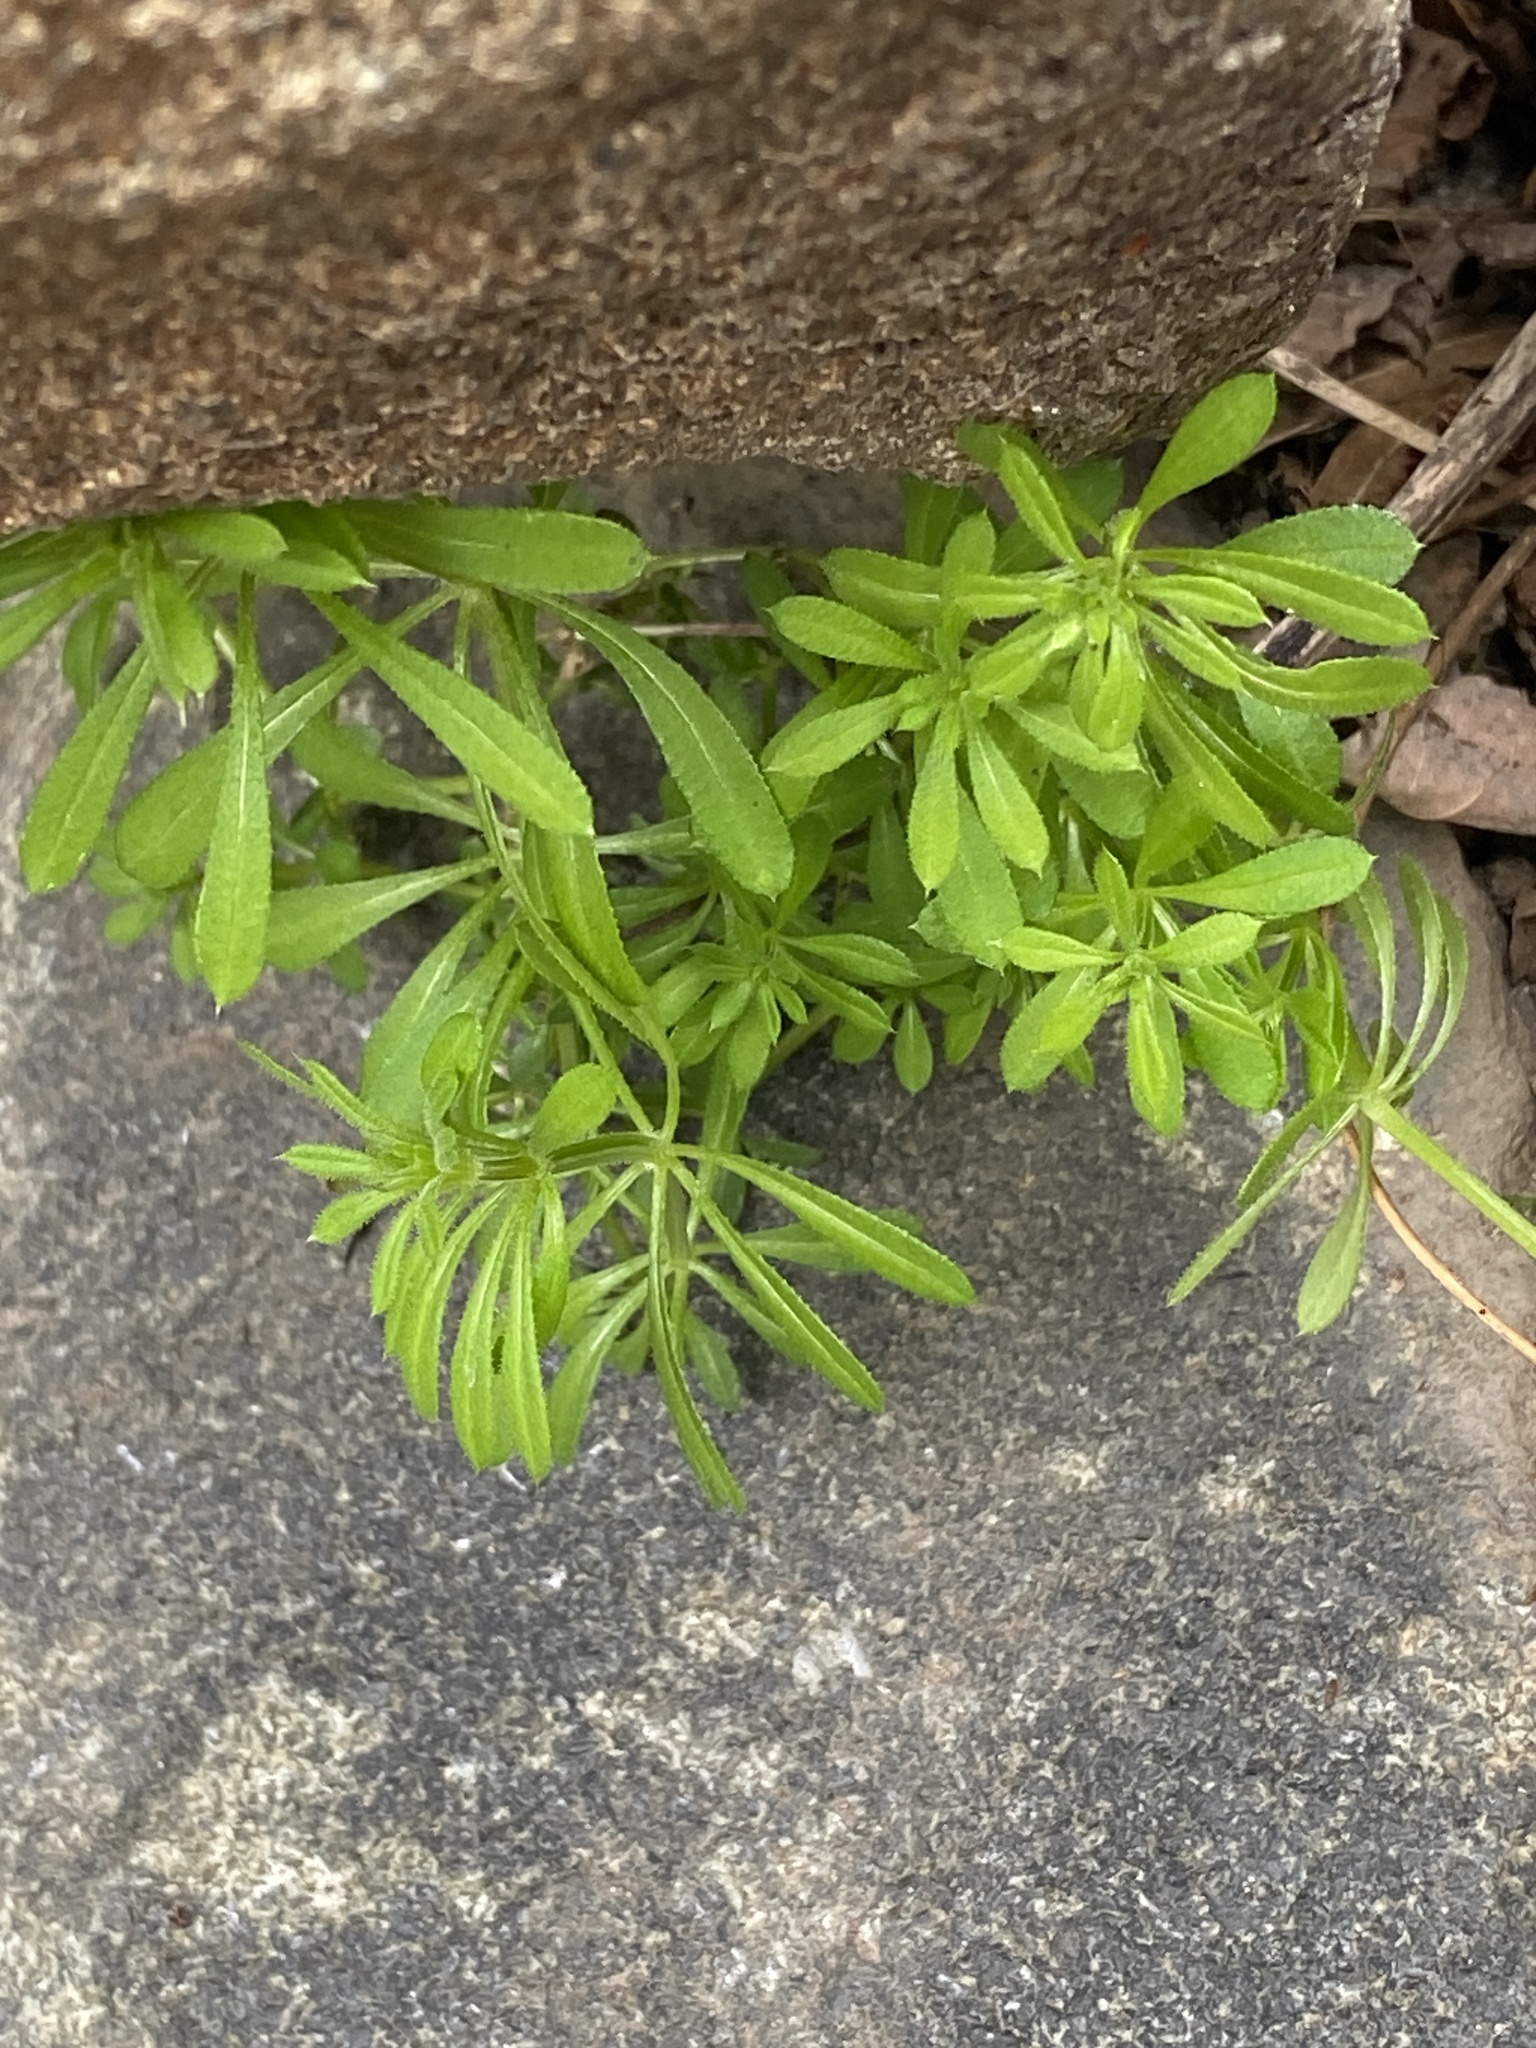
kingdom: Plantae
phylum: Tracheophyta
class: Magnoliopsida
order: Gentianales
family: Rubiaceae
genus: Galium
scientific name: Galium aparine
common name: Cleavers
